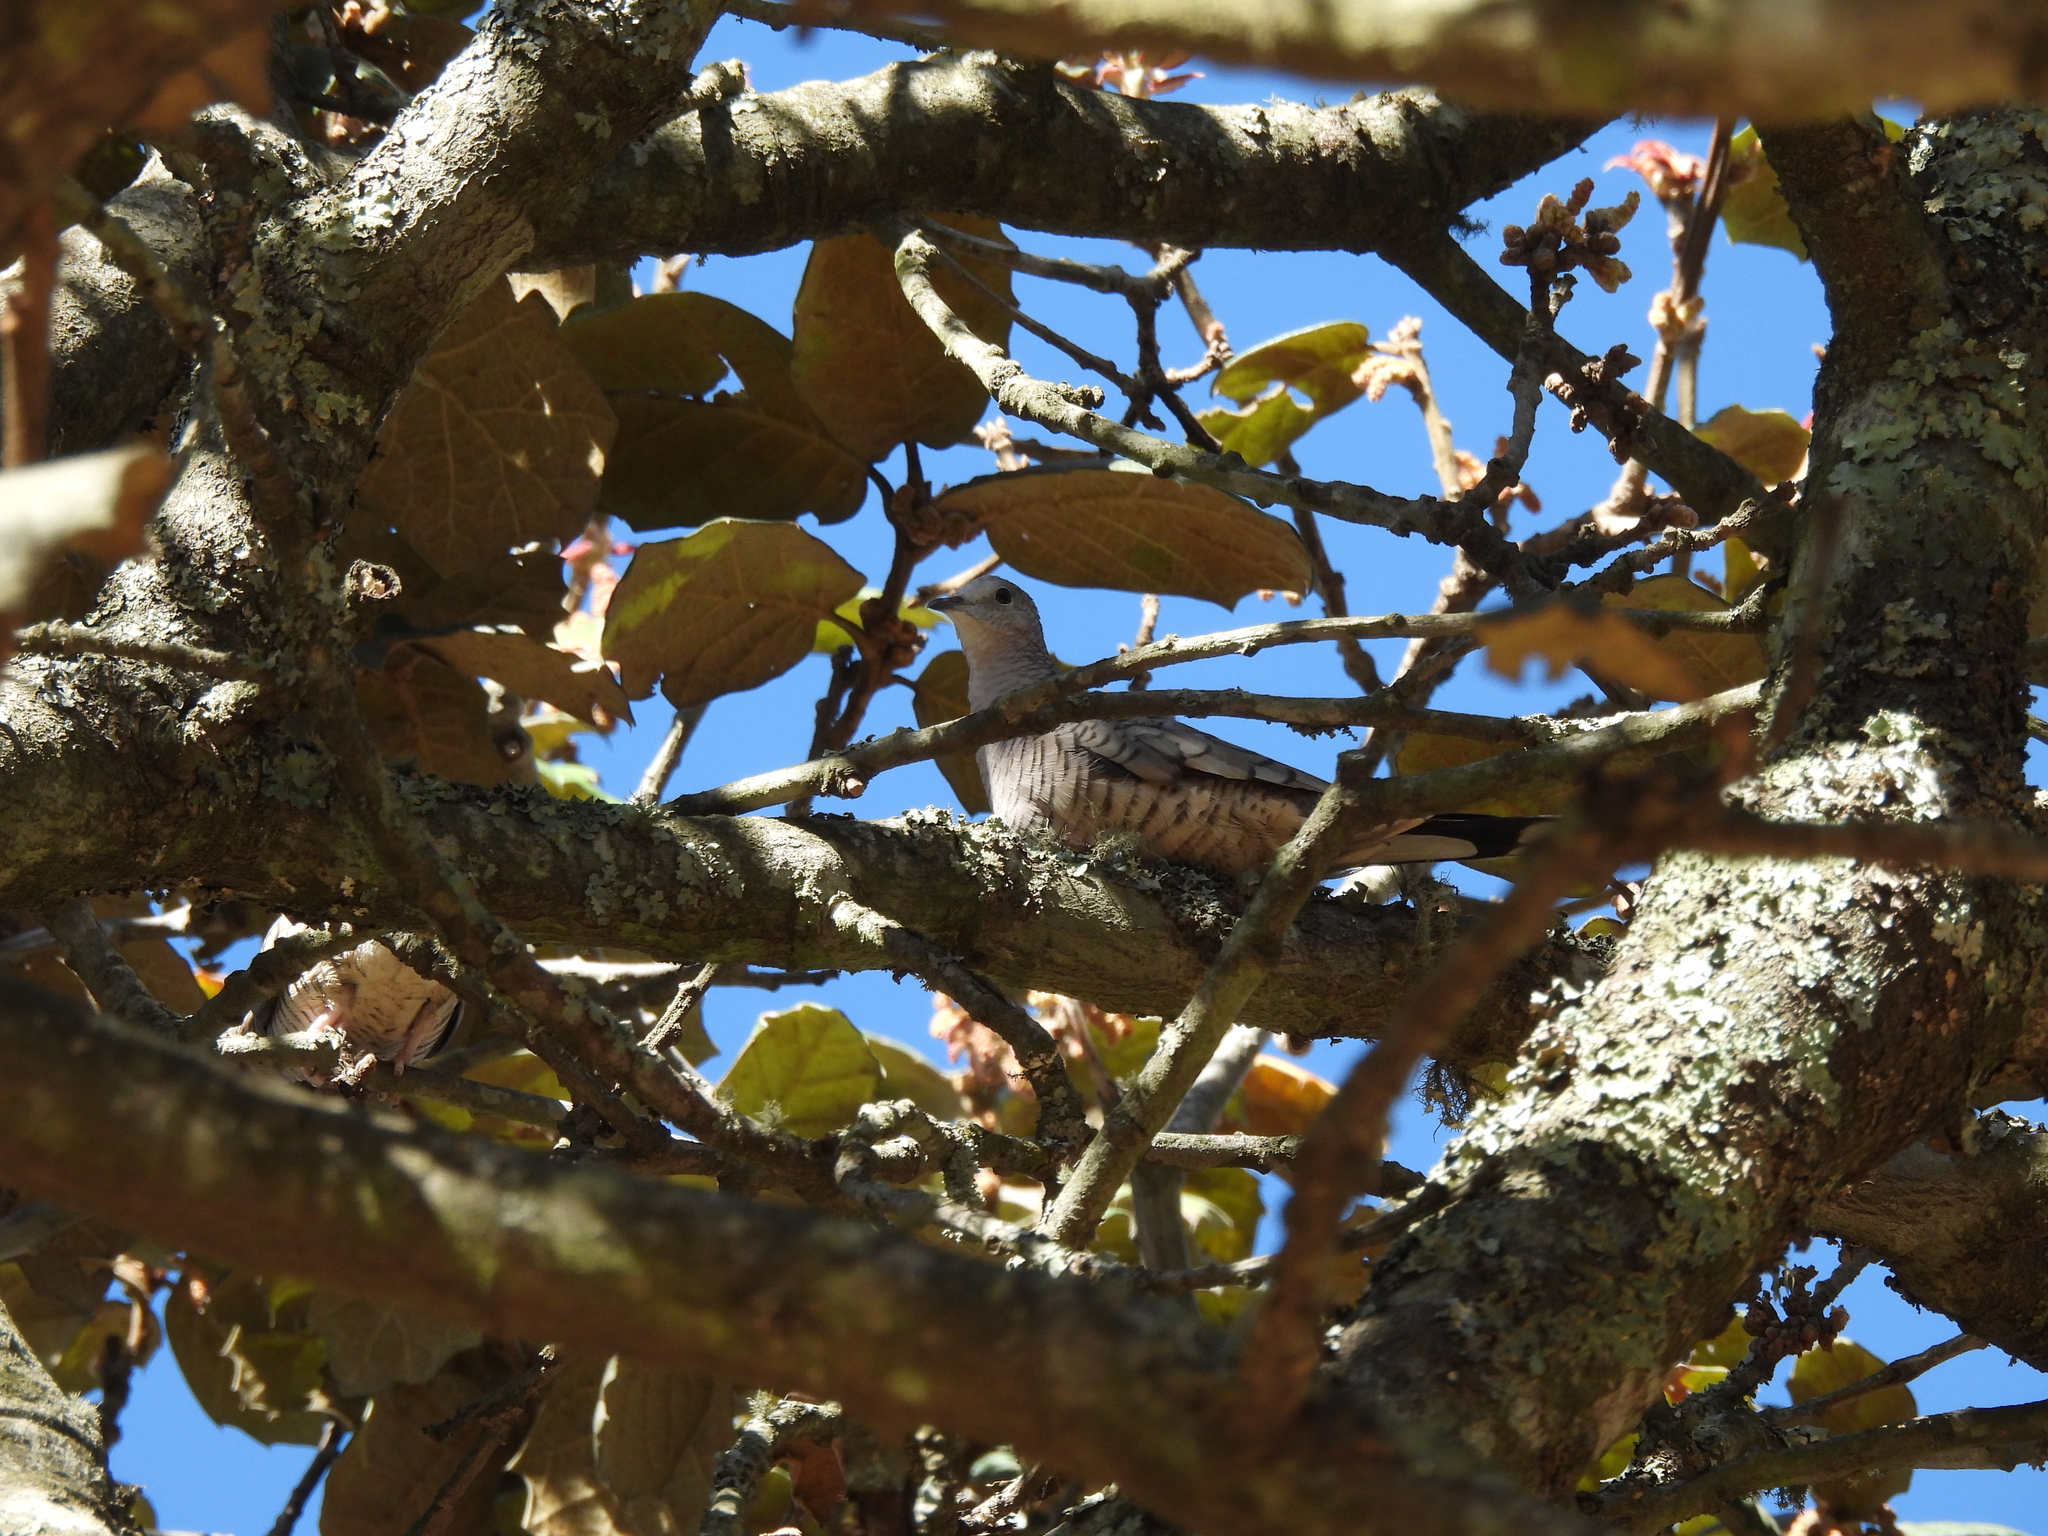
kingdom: Animalia
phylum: Chordata
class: Aves
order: Columbiformes
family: Columbidae
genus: Columbina
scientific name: Columbina inca
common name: Inca dove
